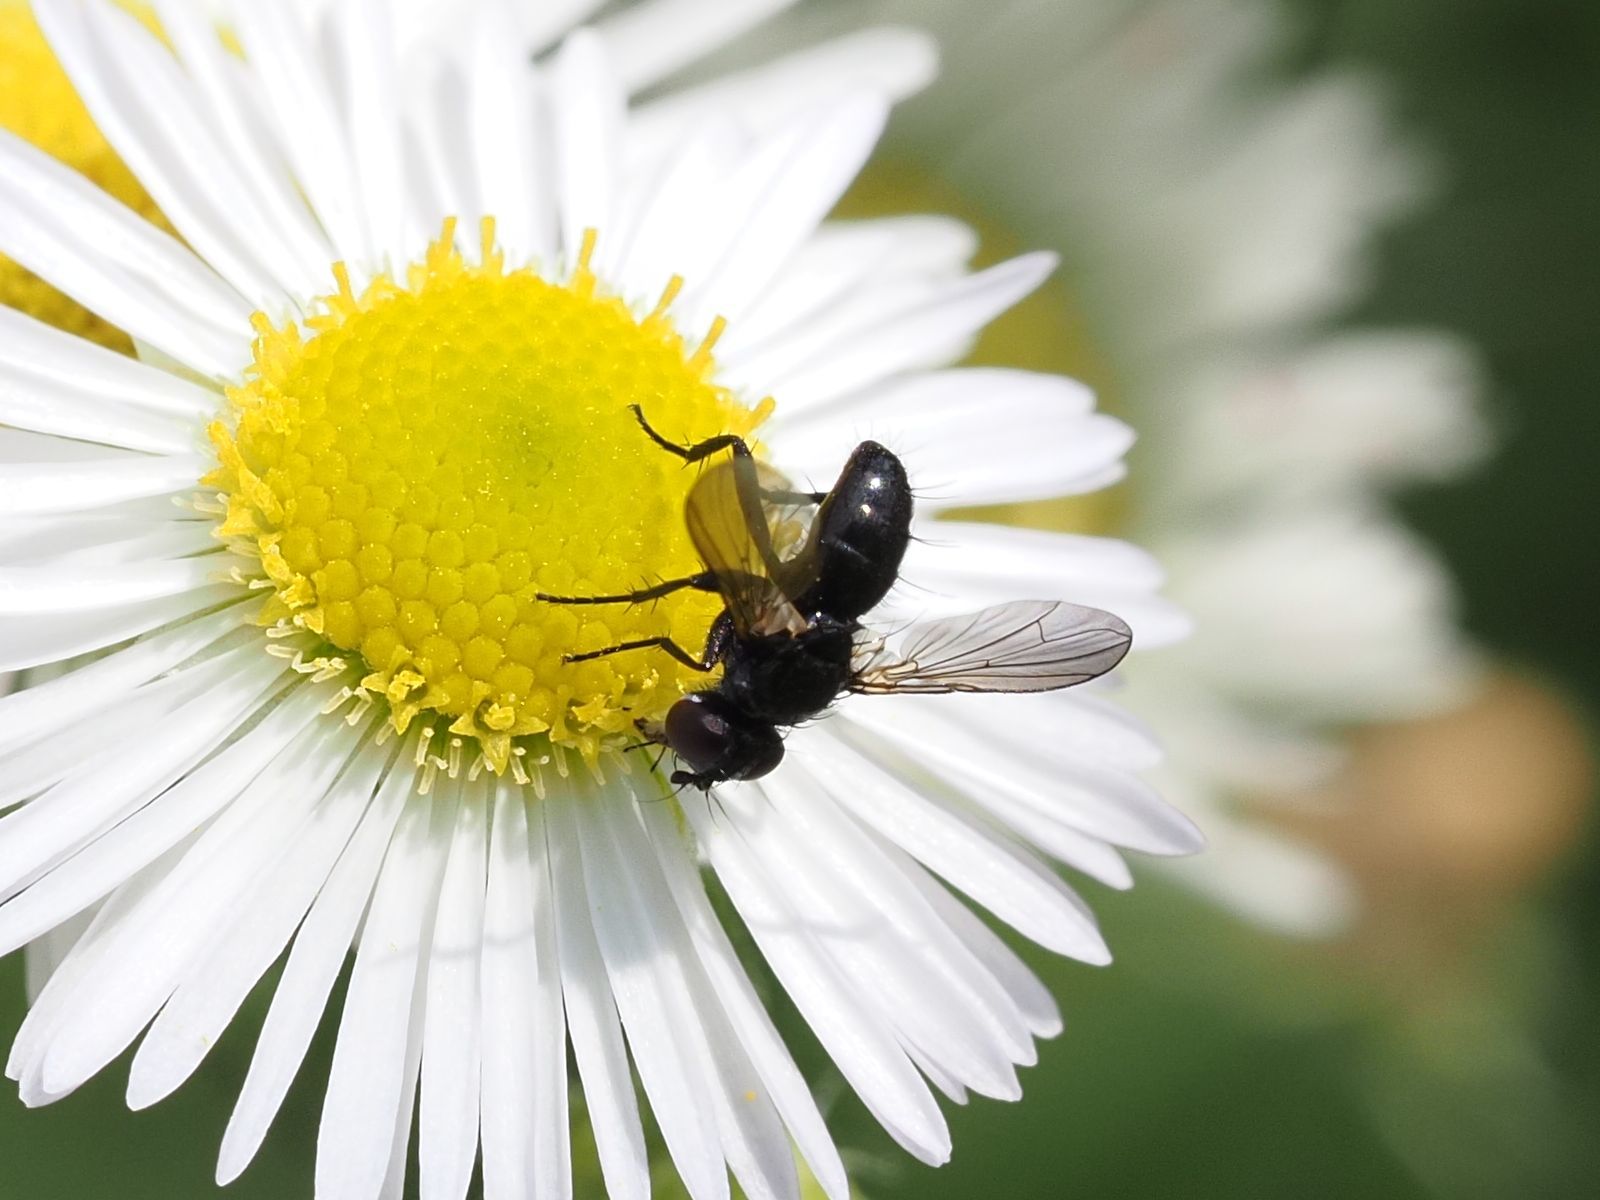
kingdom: Animalia
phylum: Arthropoda
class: Insecta
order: Diptera
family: Tachinidae
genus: Phania
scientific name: Phania funesta
